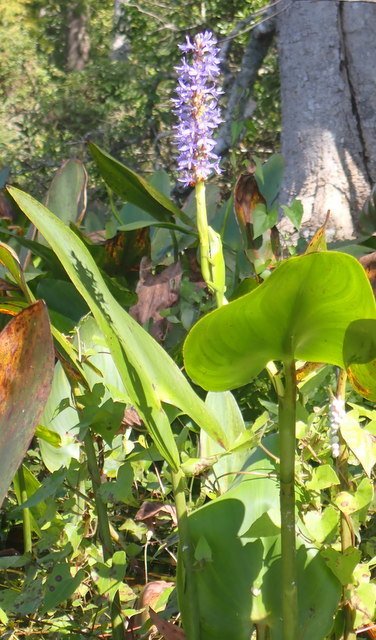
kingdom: Plantae
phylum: Tracheophyta
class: Liliopsida
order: Commelinales
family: Pontederiaceae
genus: Pontederia
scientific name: Pontederia cordata
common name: Pickerelweed
